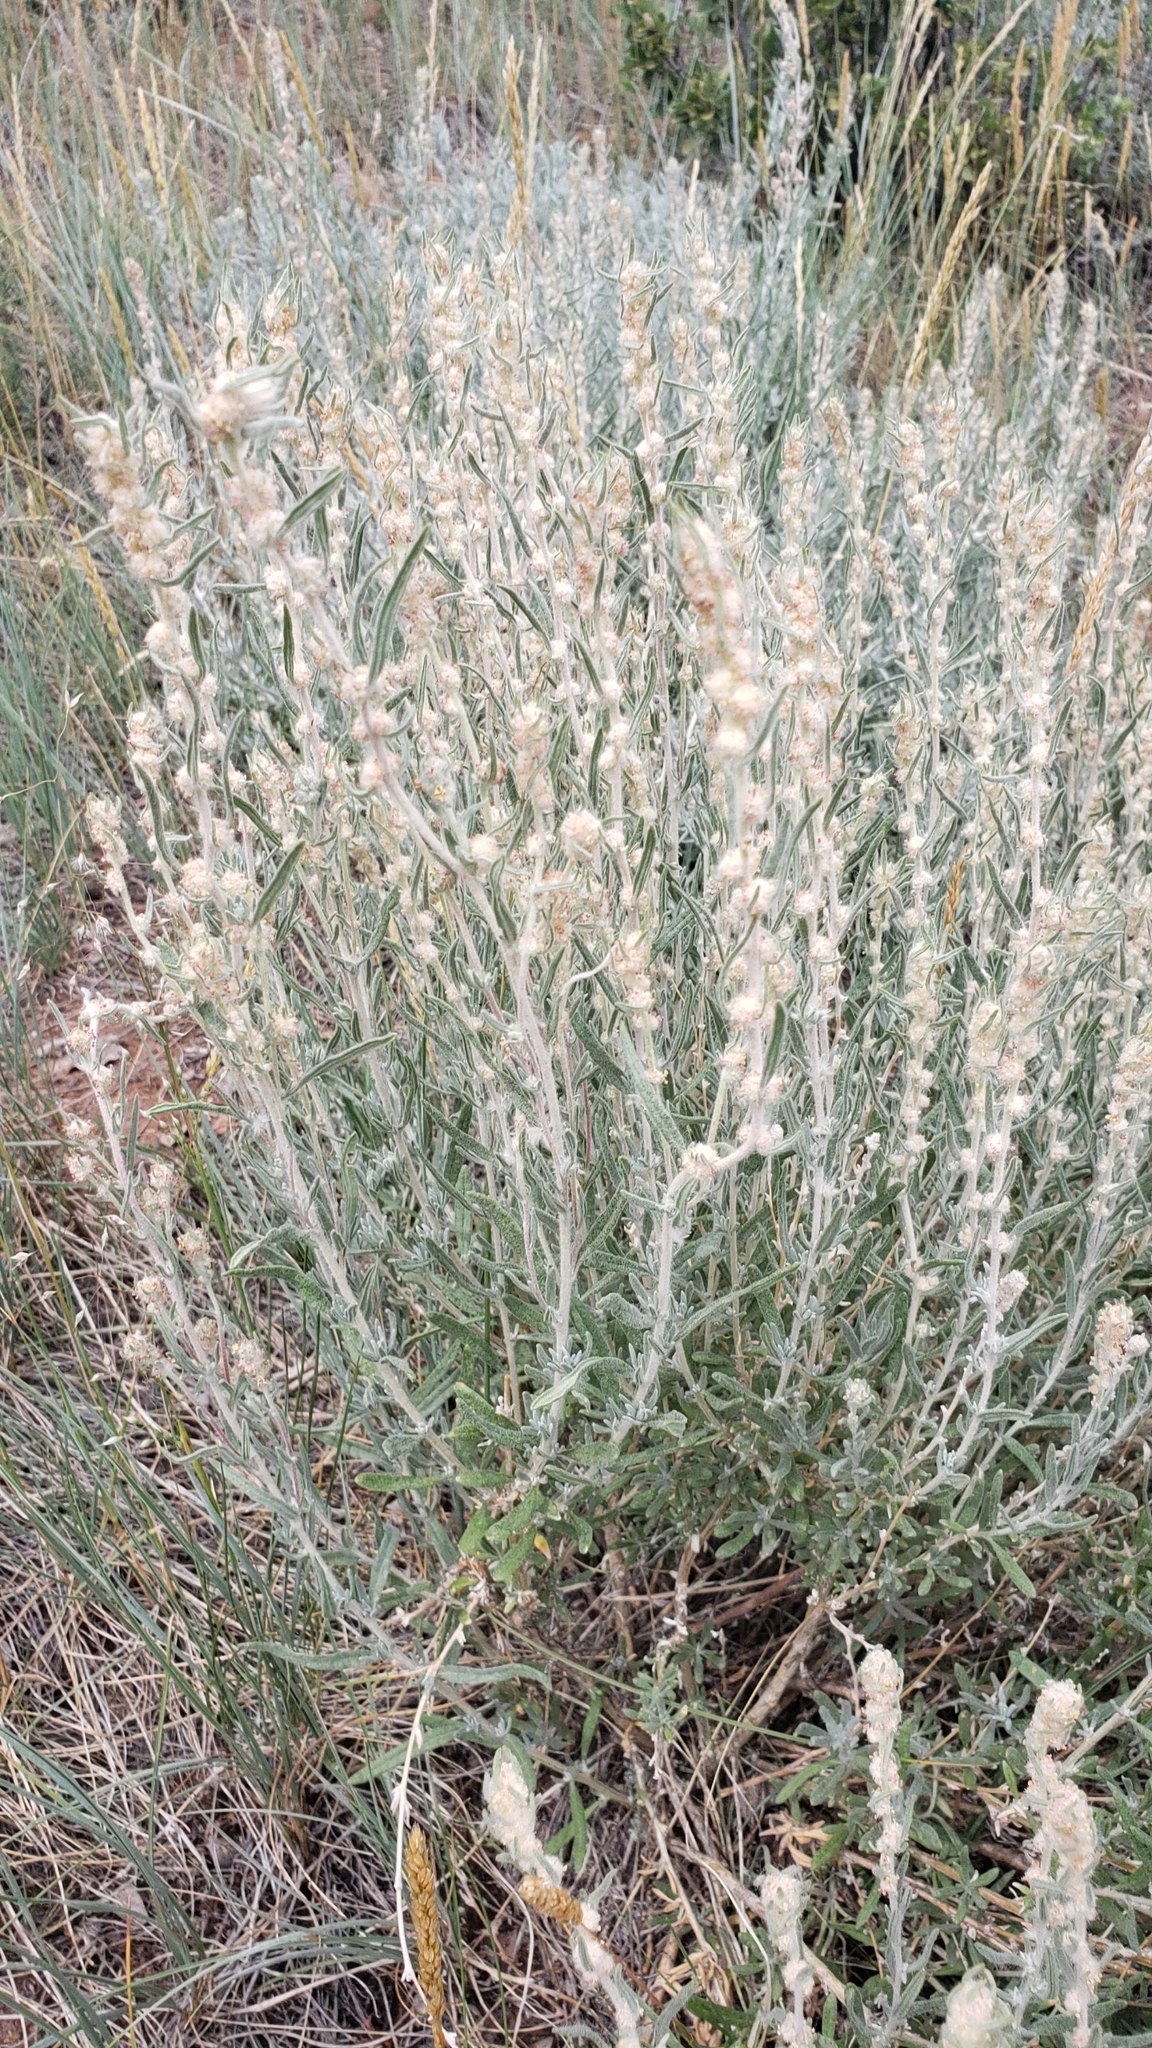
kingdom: Plantae
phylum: Tracheophyta
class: Magnoliopsida
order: Caryophyllales
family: Amaranthaceae
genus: Krascheninnikovia
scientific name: Krascheninnikovia lanata
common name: Winterfat
